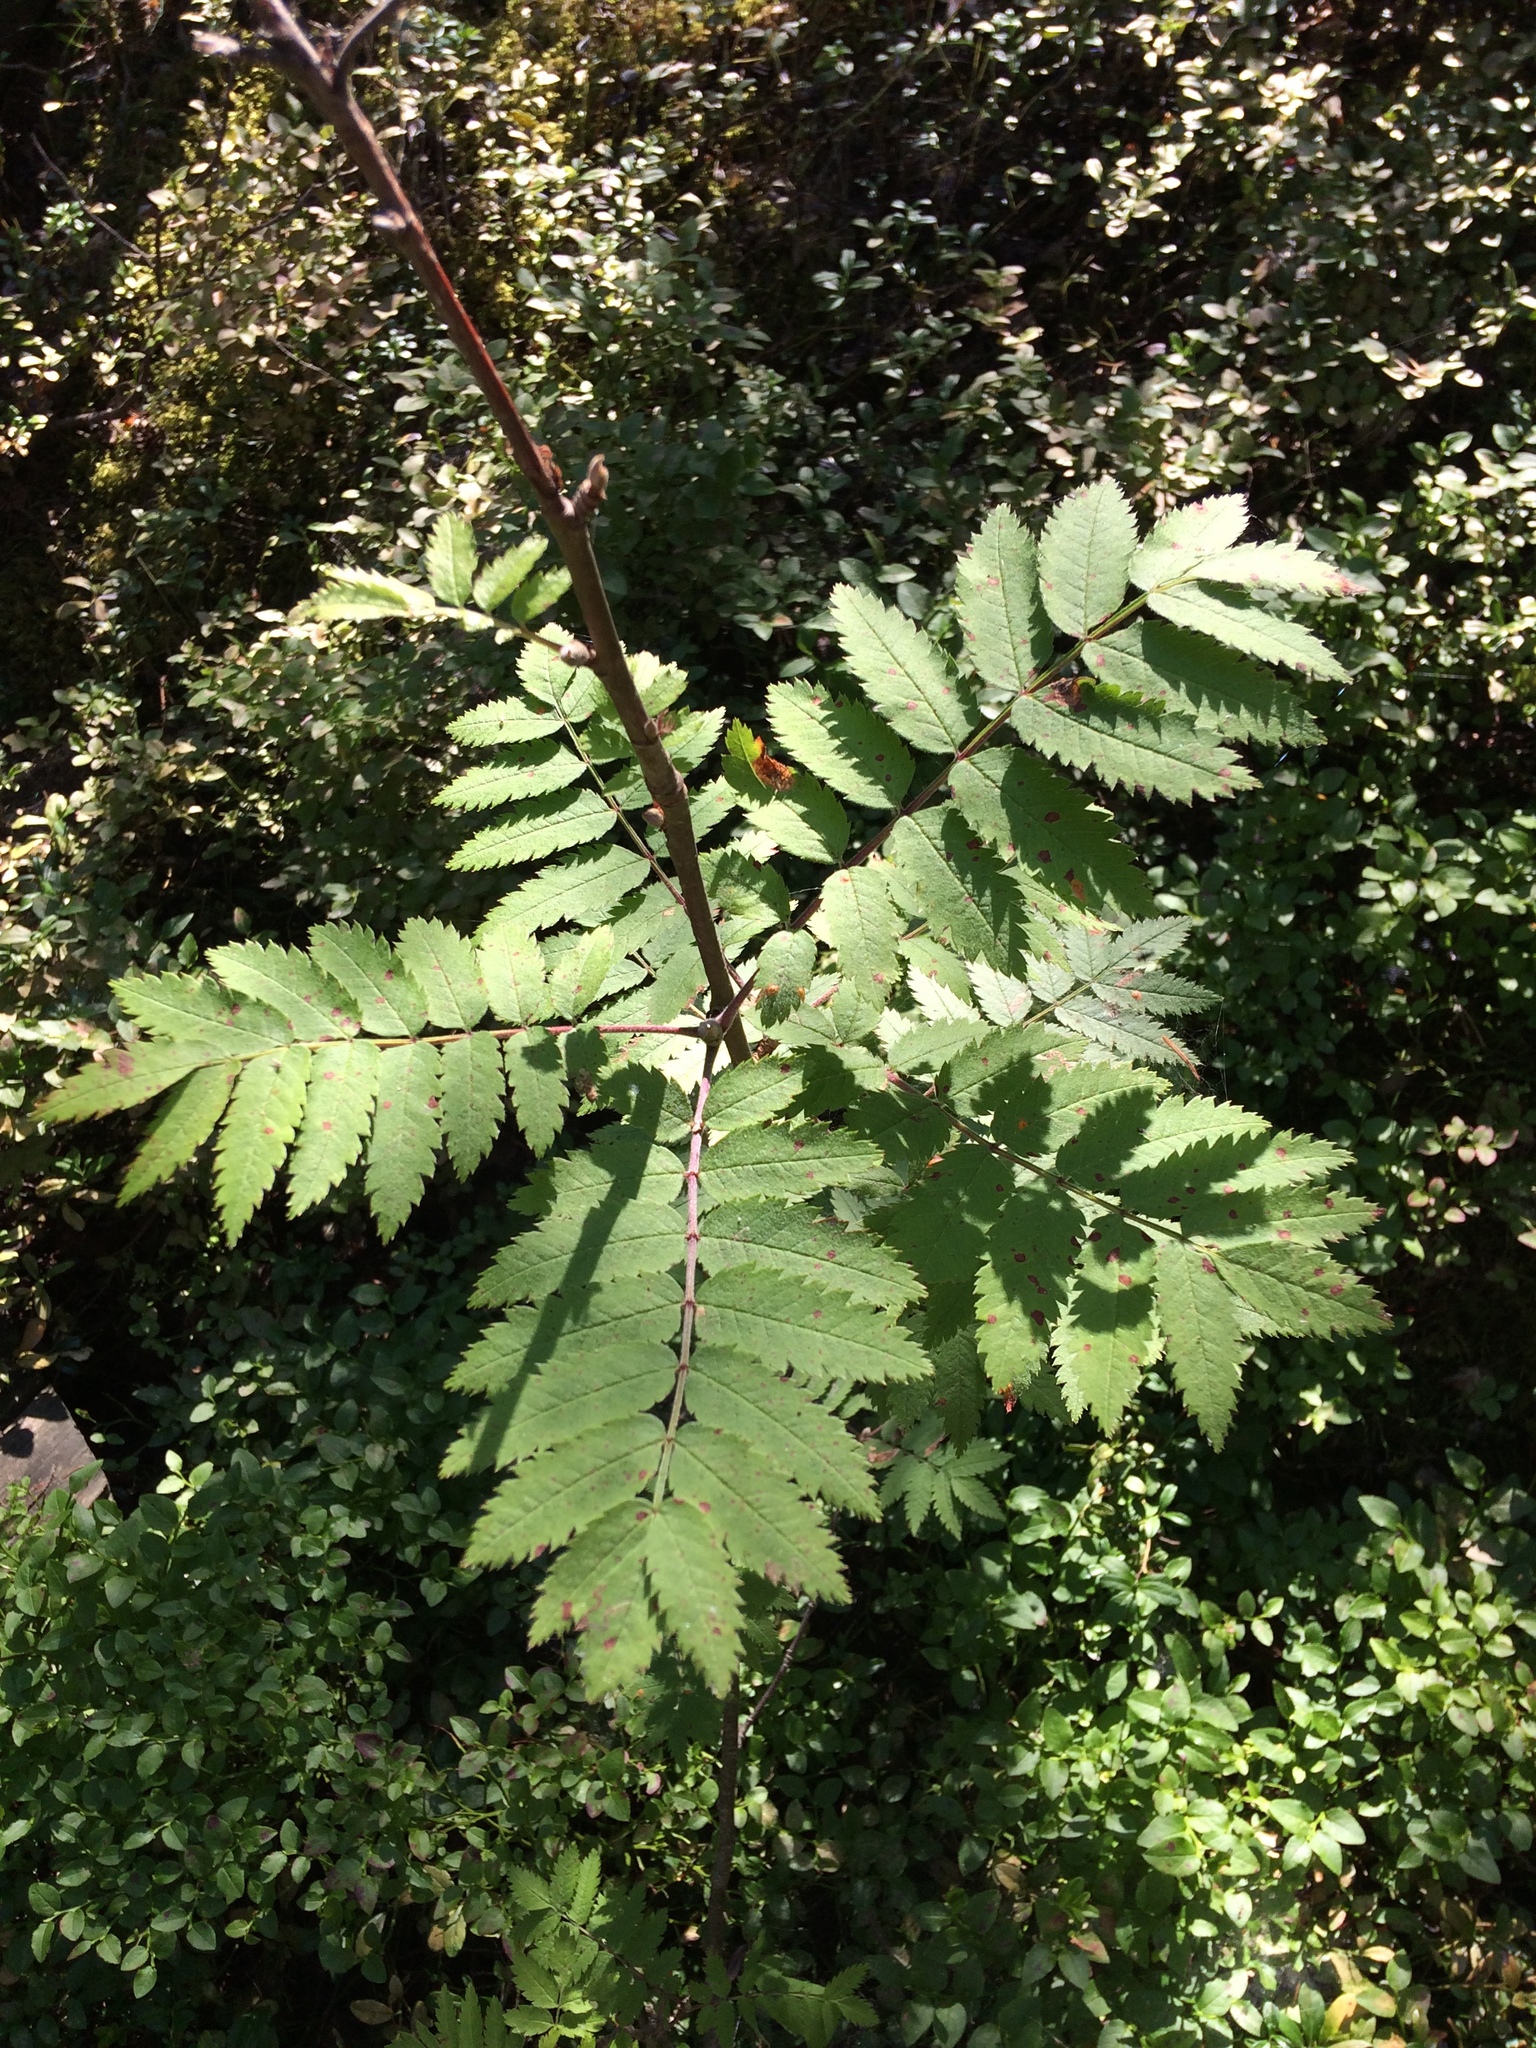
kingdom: Plantae
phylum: Tracheophyta
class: Magnoliopsida
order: Rosales
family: Rosaceae
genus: Sorbus
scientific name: Sorbus aucuparia
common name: Rowan
